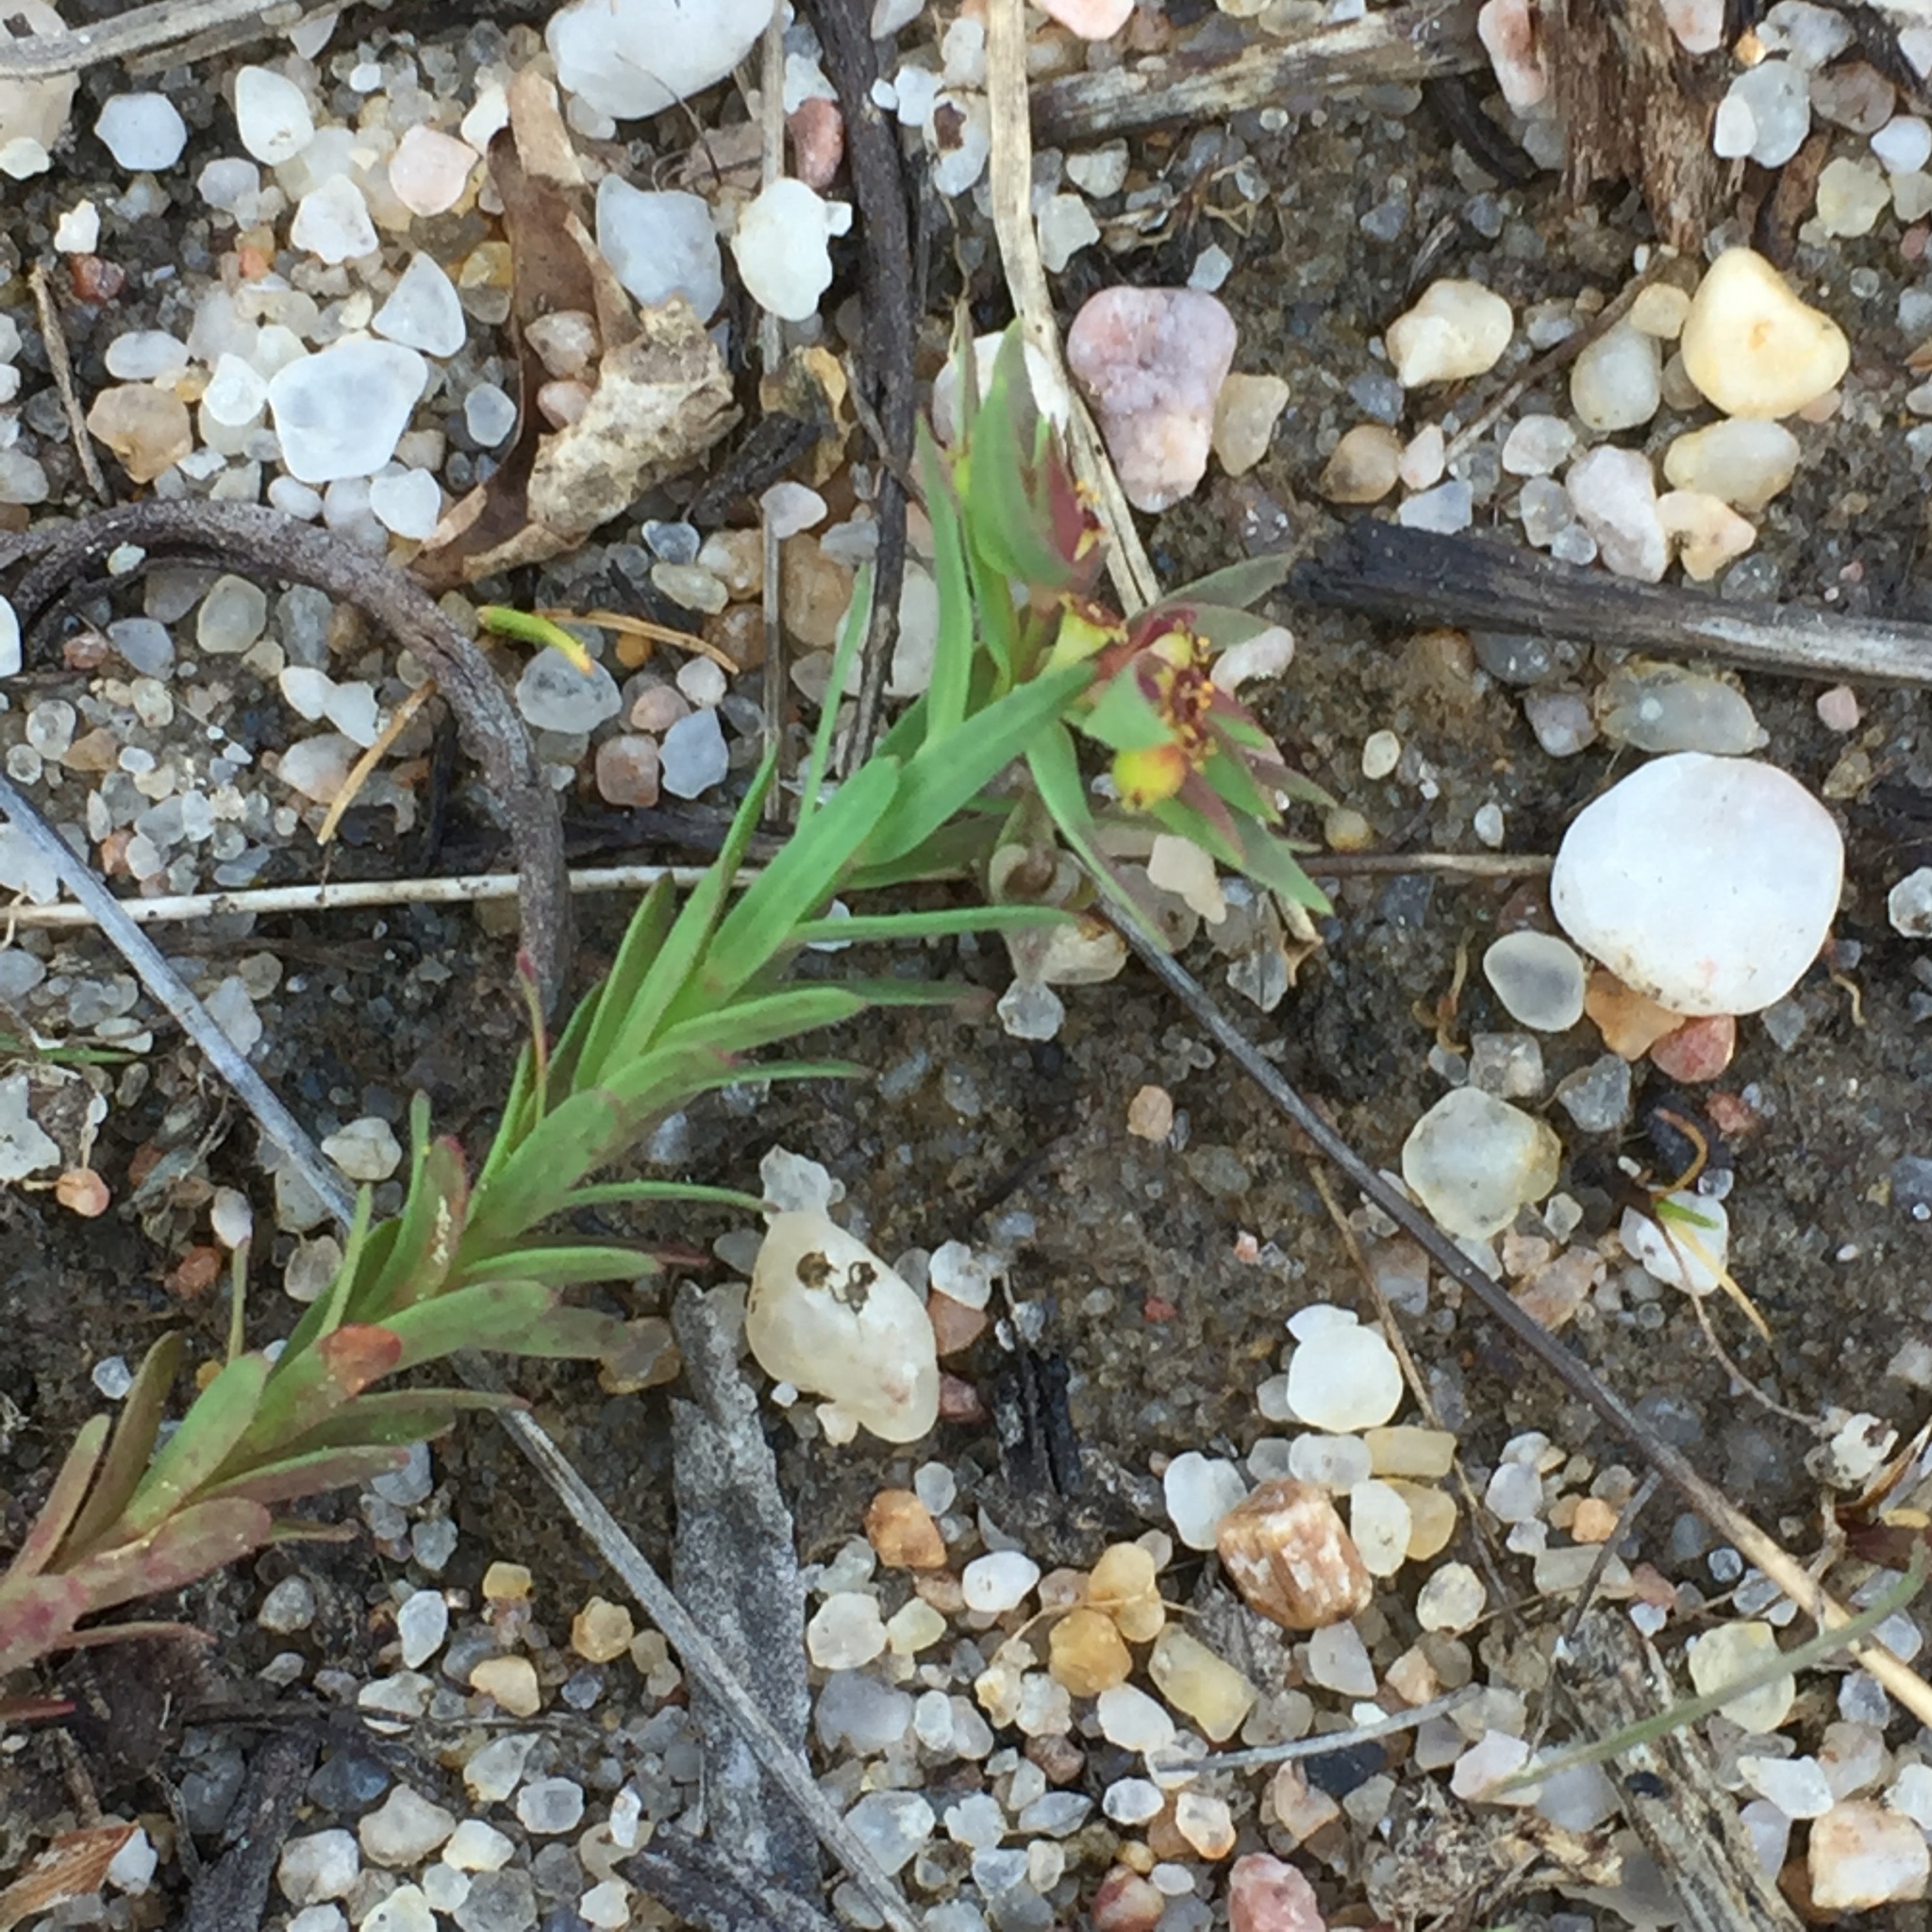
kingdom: Plantae
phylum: Tracheophyta
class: Magnoliopsida
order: Malpighiales
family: Euphorbiaceae
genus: Euphorbia
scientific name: Euphorbia exigua
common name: Dwarf spurge
